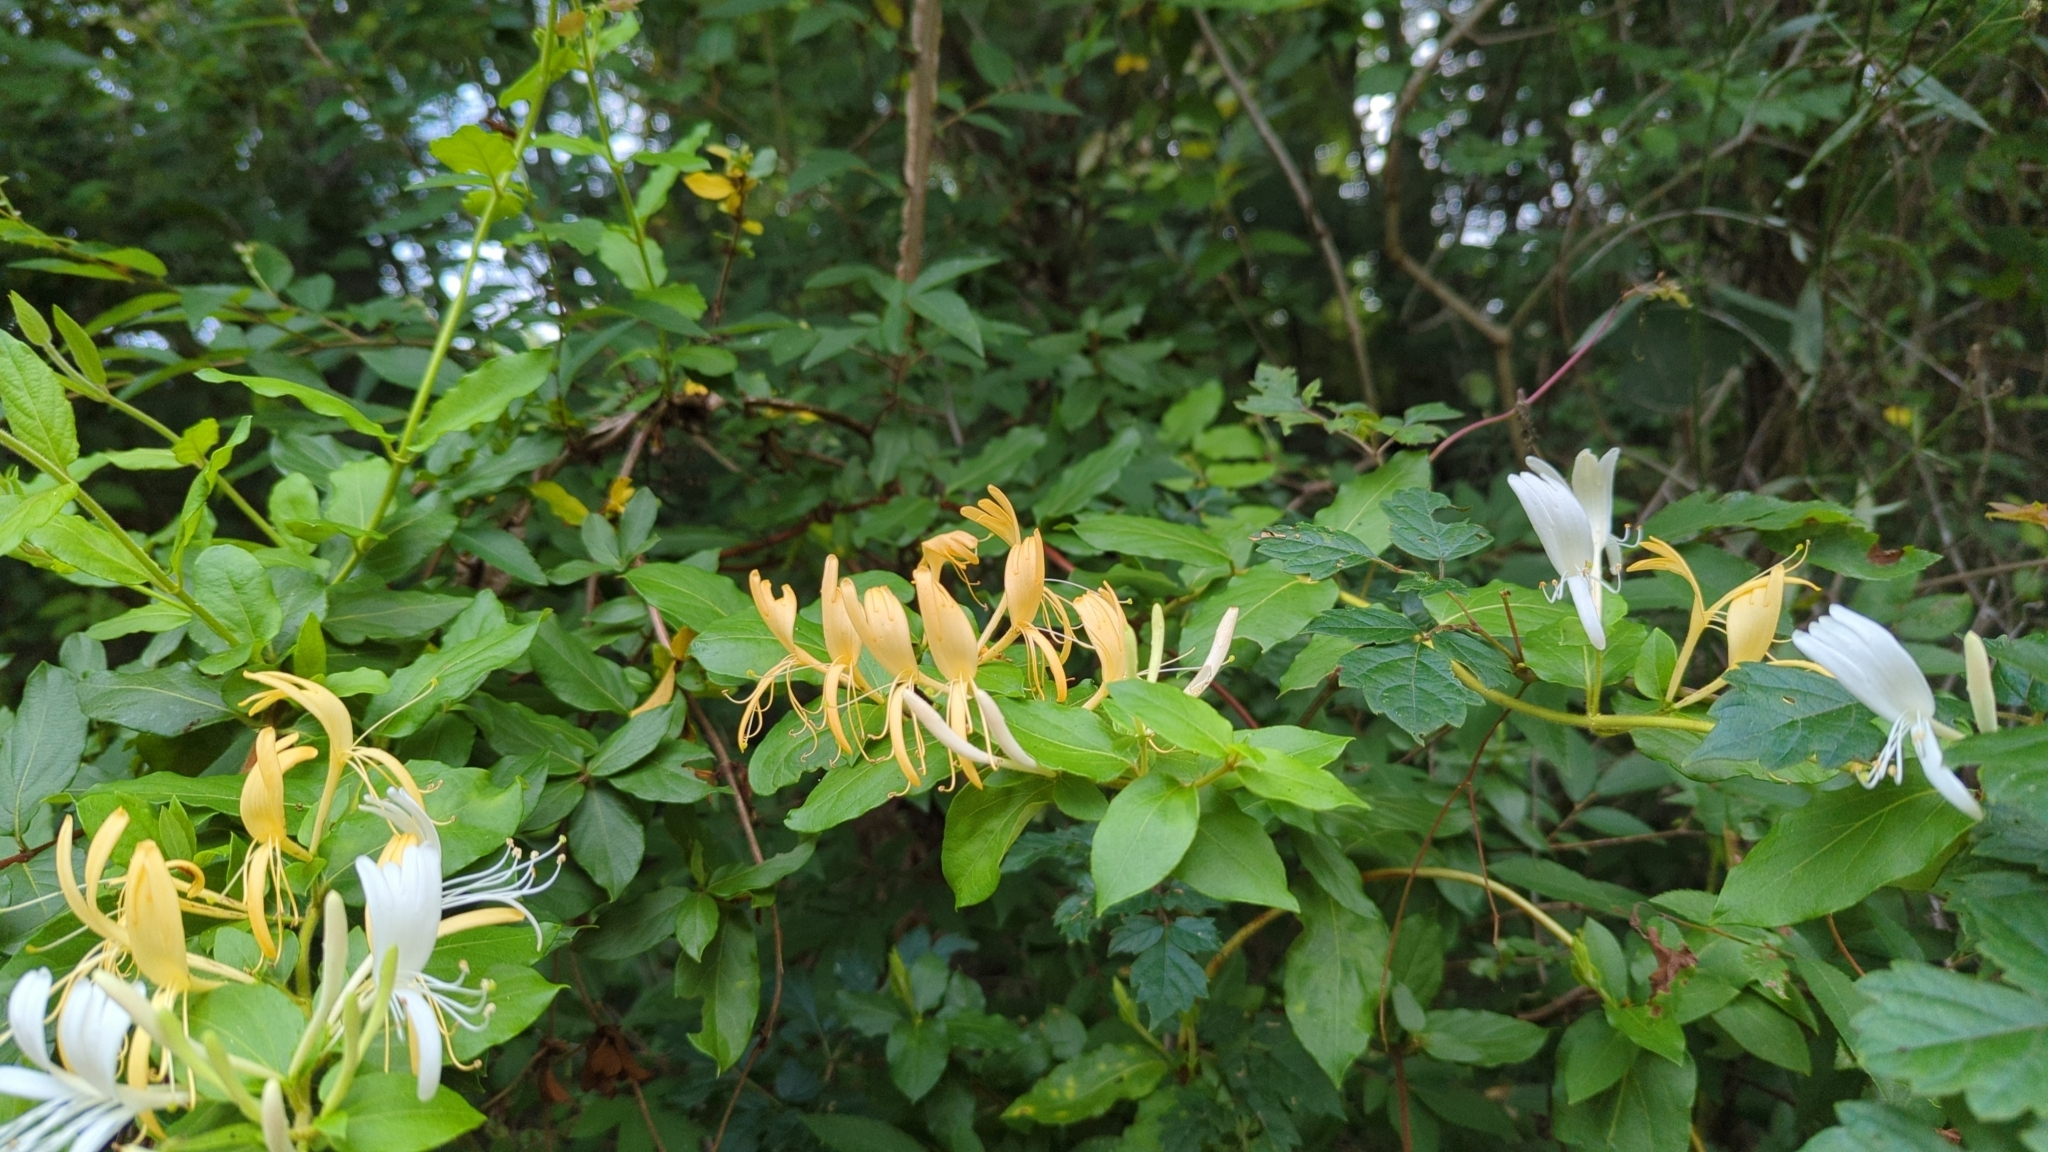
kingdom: Plantae
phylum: Tracheophyta
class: Magnoliopsida
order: Dipsacales
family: Caprifoliaceae
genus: Lonicera
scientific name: Lonicera japonica
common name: Japanese honeysuckle
